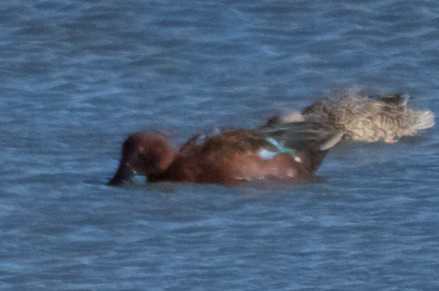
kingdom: Animalia
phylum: Chordata
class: Aves
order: Anseriformes
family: Anatidae
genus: Spatula
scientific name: Spatula cyanoptera
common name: Cinnamon teal
